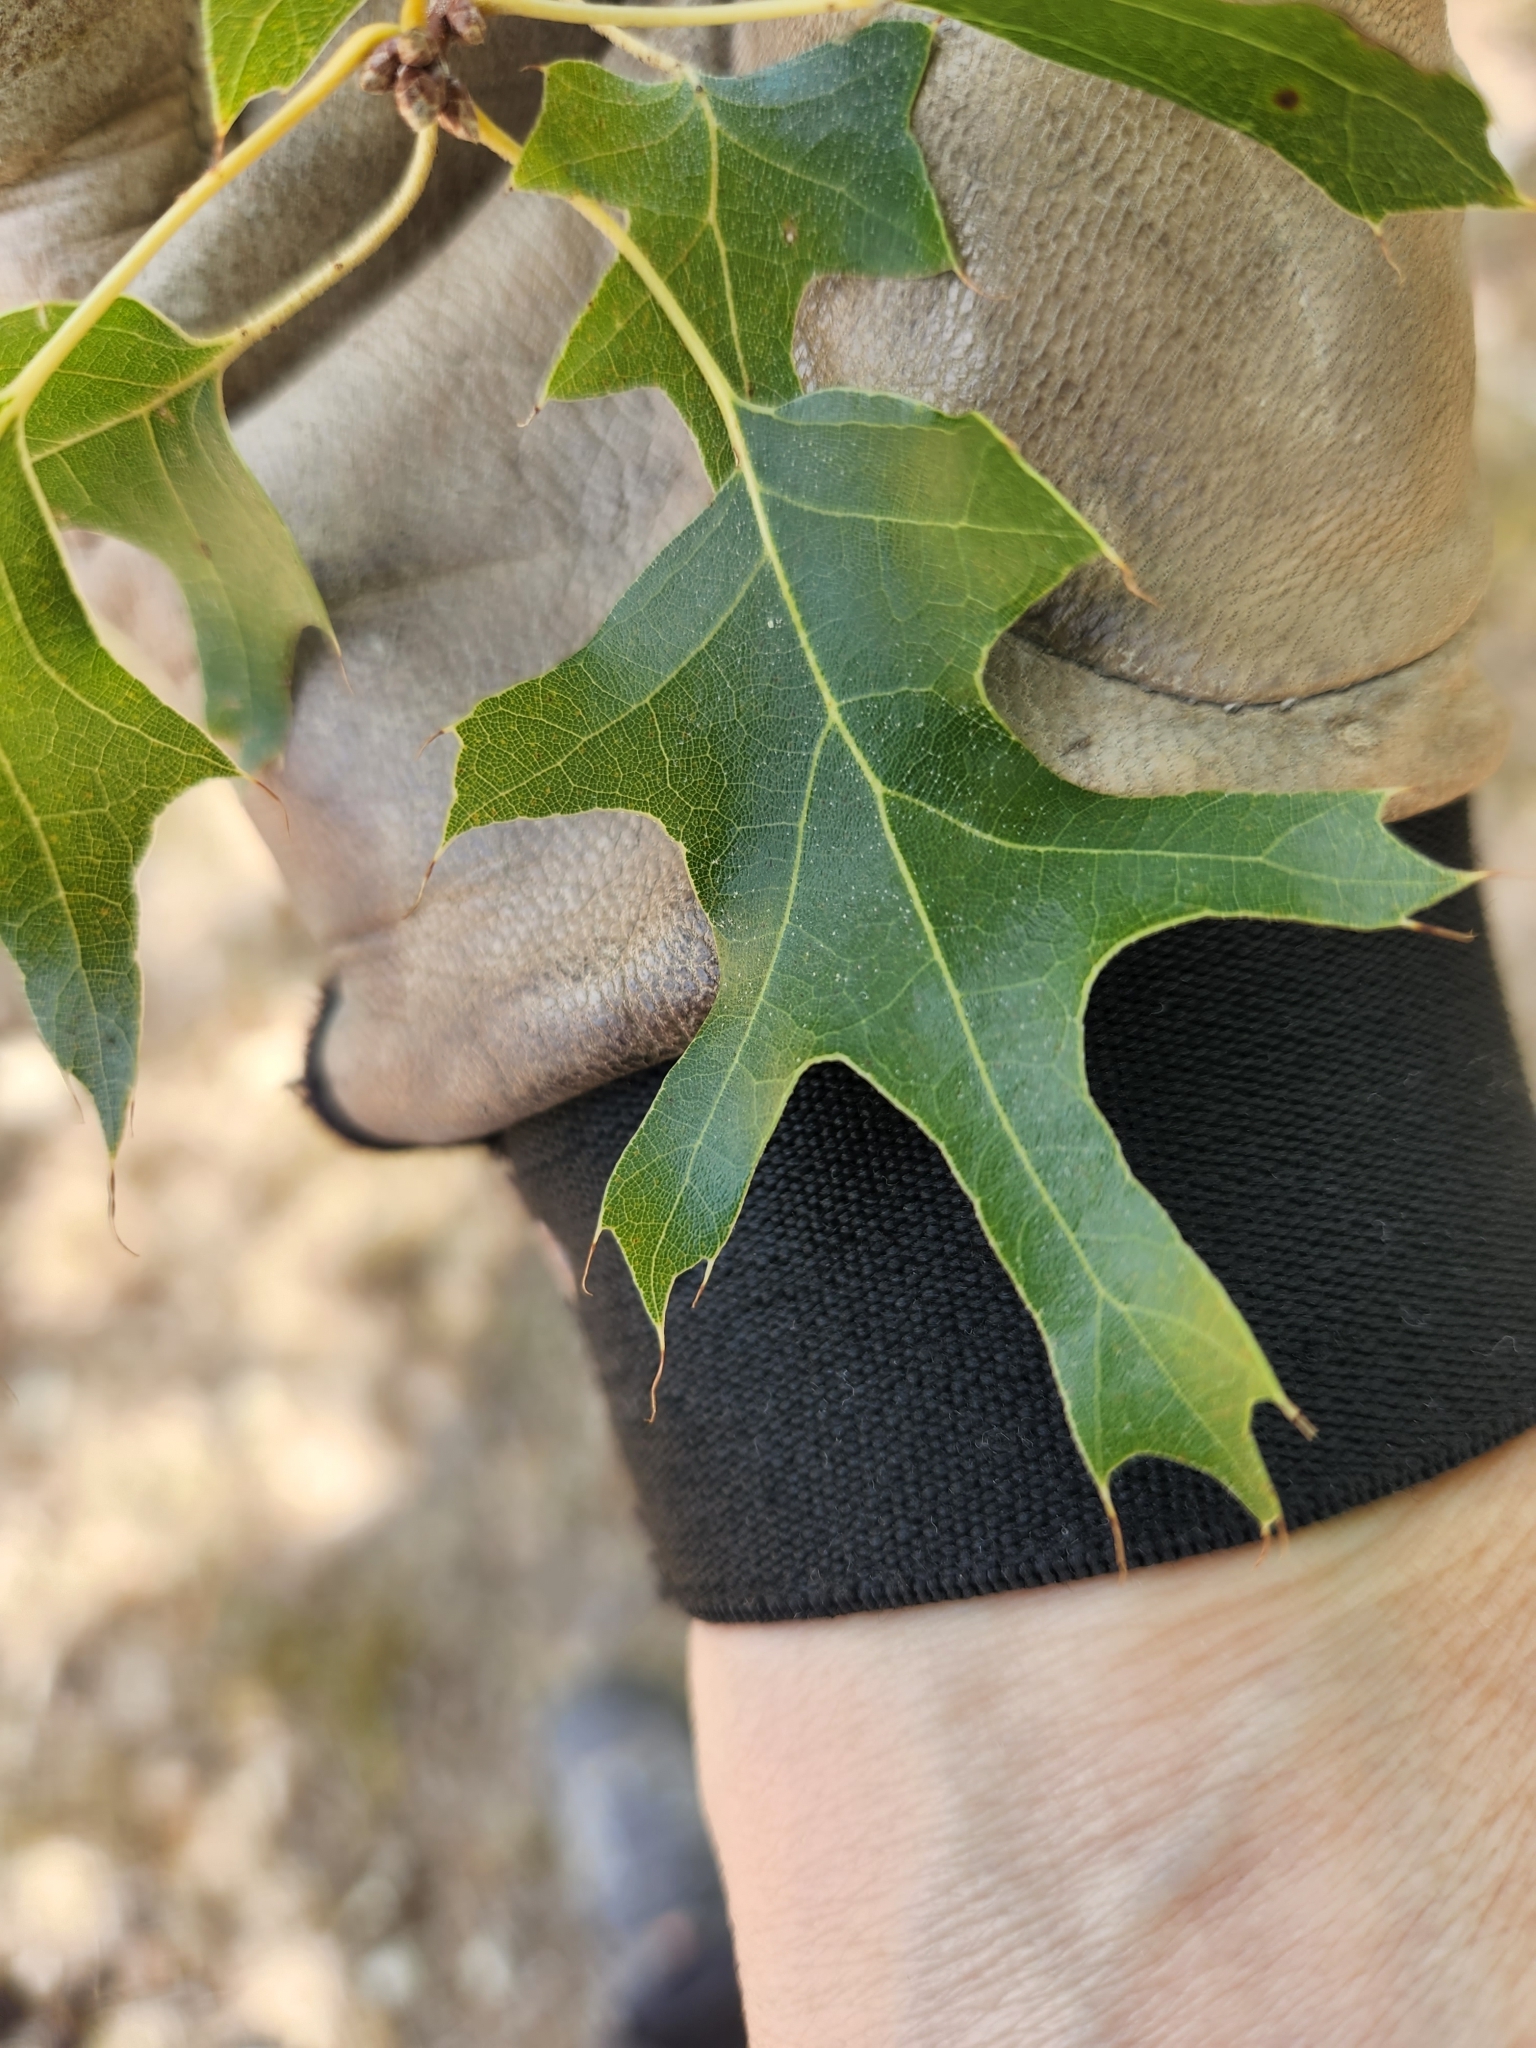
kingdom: Plantae
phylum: Tracheophyta
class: Magnoliopsida
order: Fagales
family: Fagaceae
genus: Quercus
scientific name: Quercus buckleyi
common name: Buckley oak
